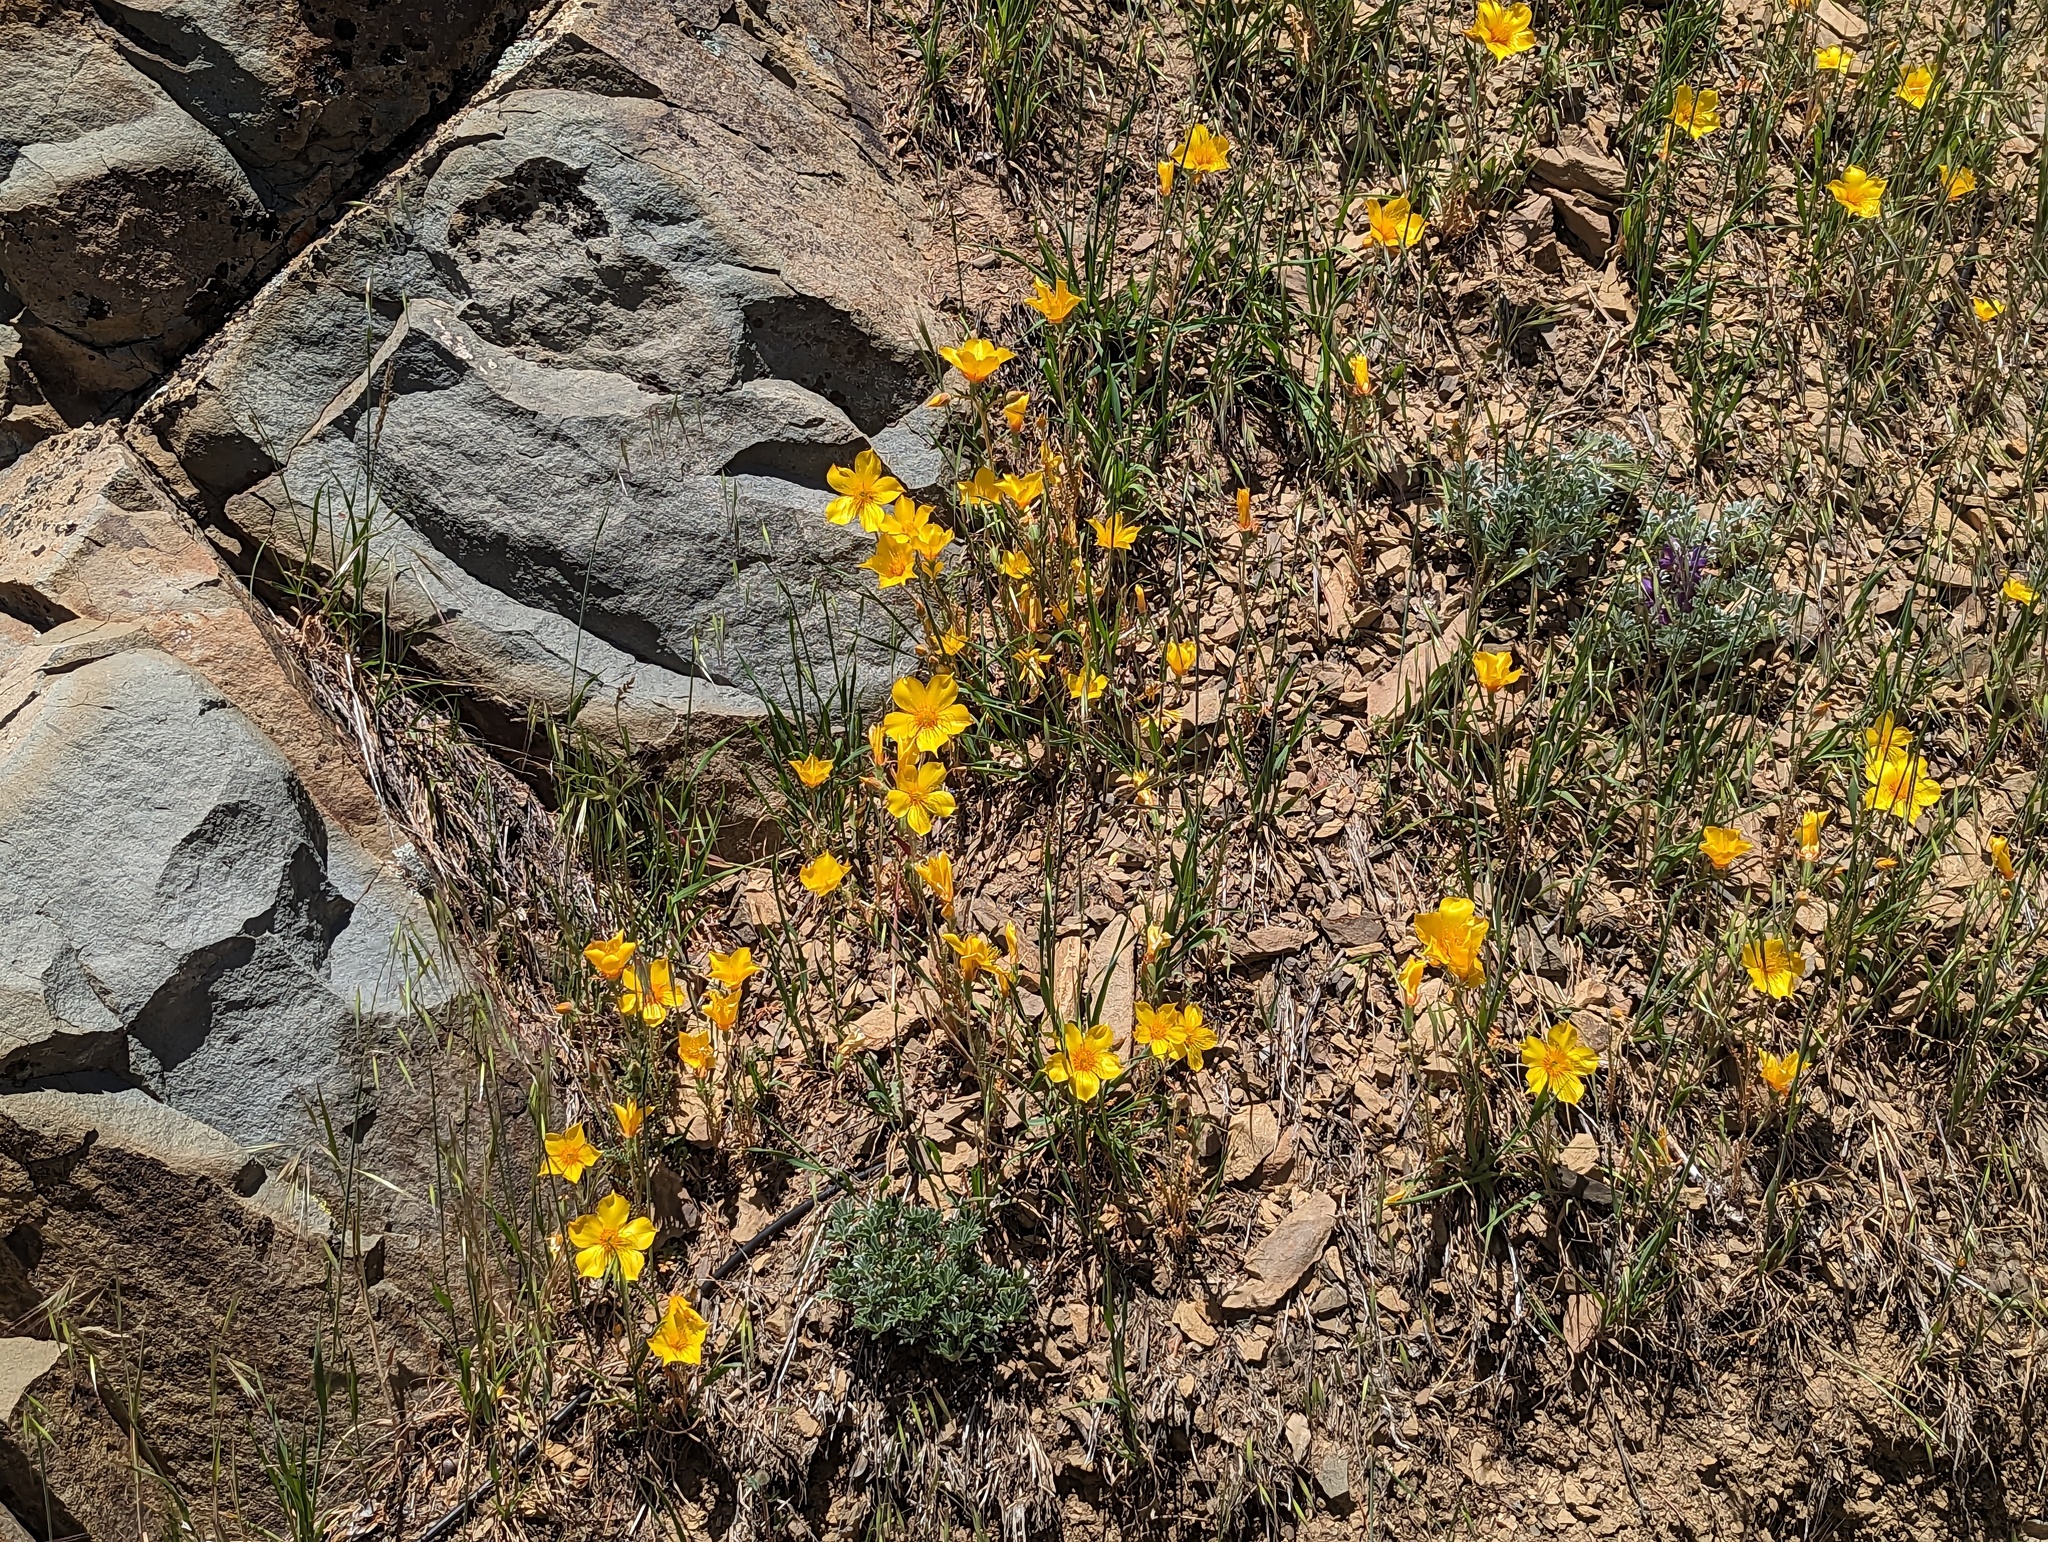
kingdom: Plantae
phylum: Tracheophyta
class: Magnoliopsida
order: Cornales
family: Loasaceae
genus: Mentzelia
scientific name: Mentzelia lindleyi
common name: Golden bartonia
